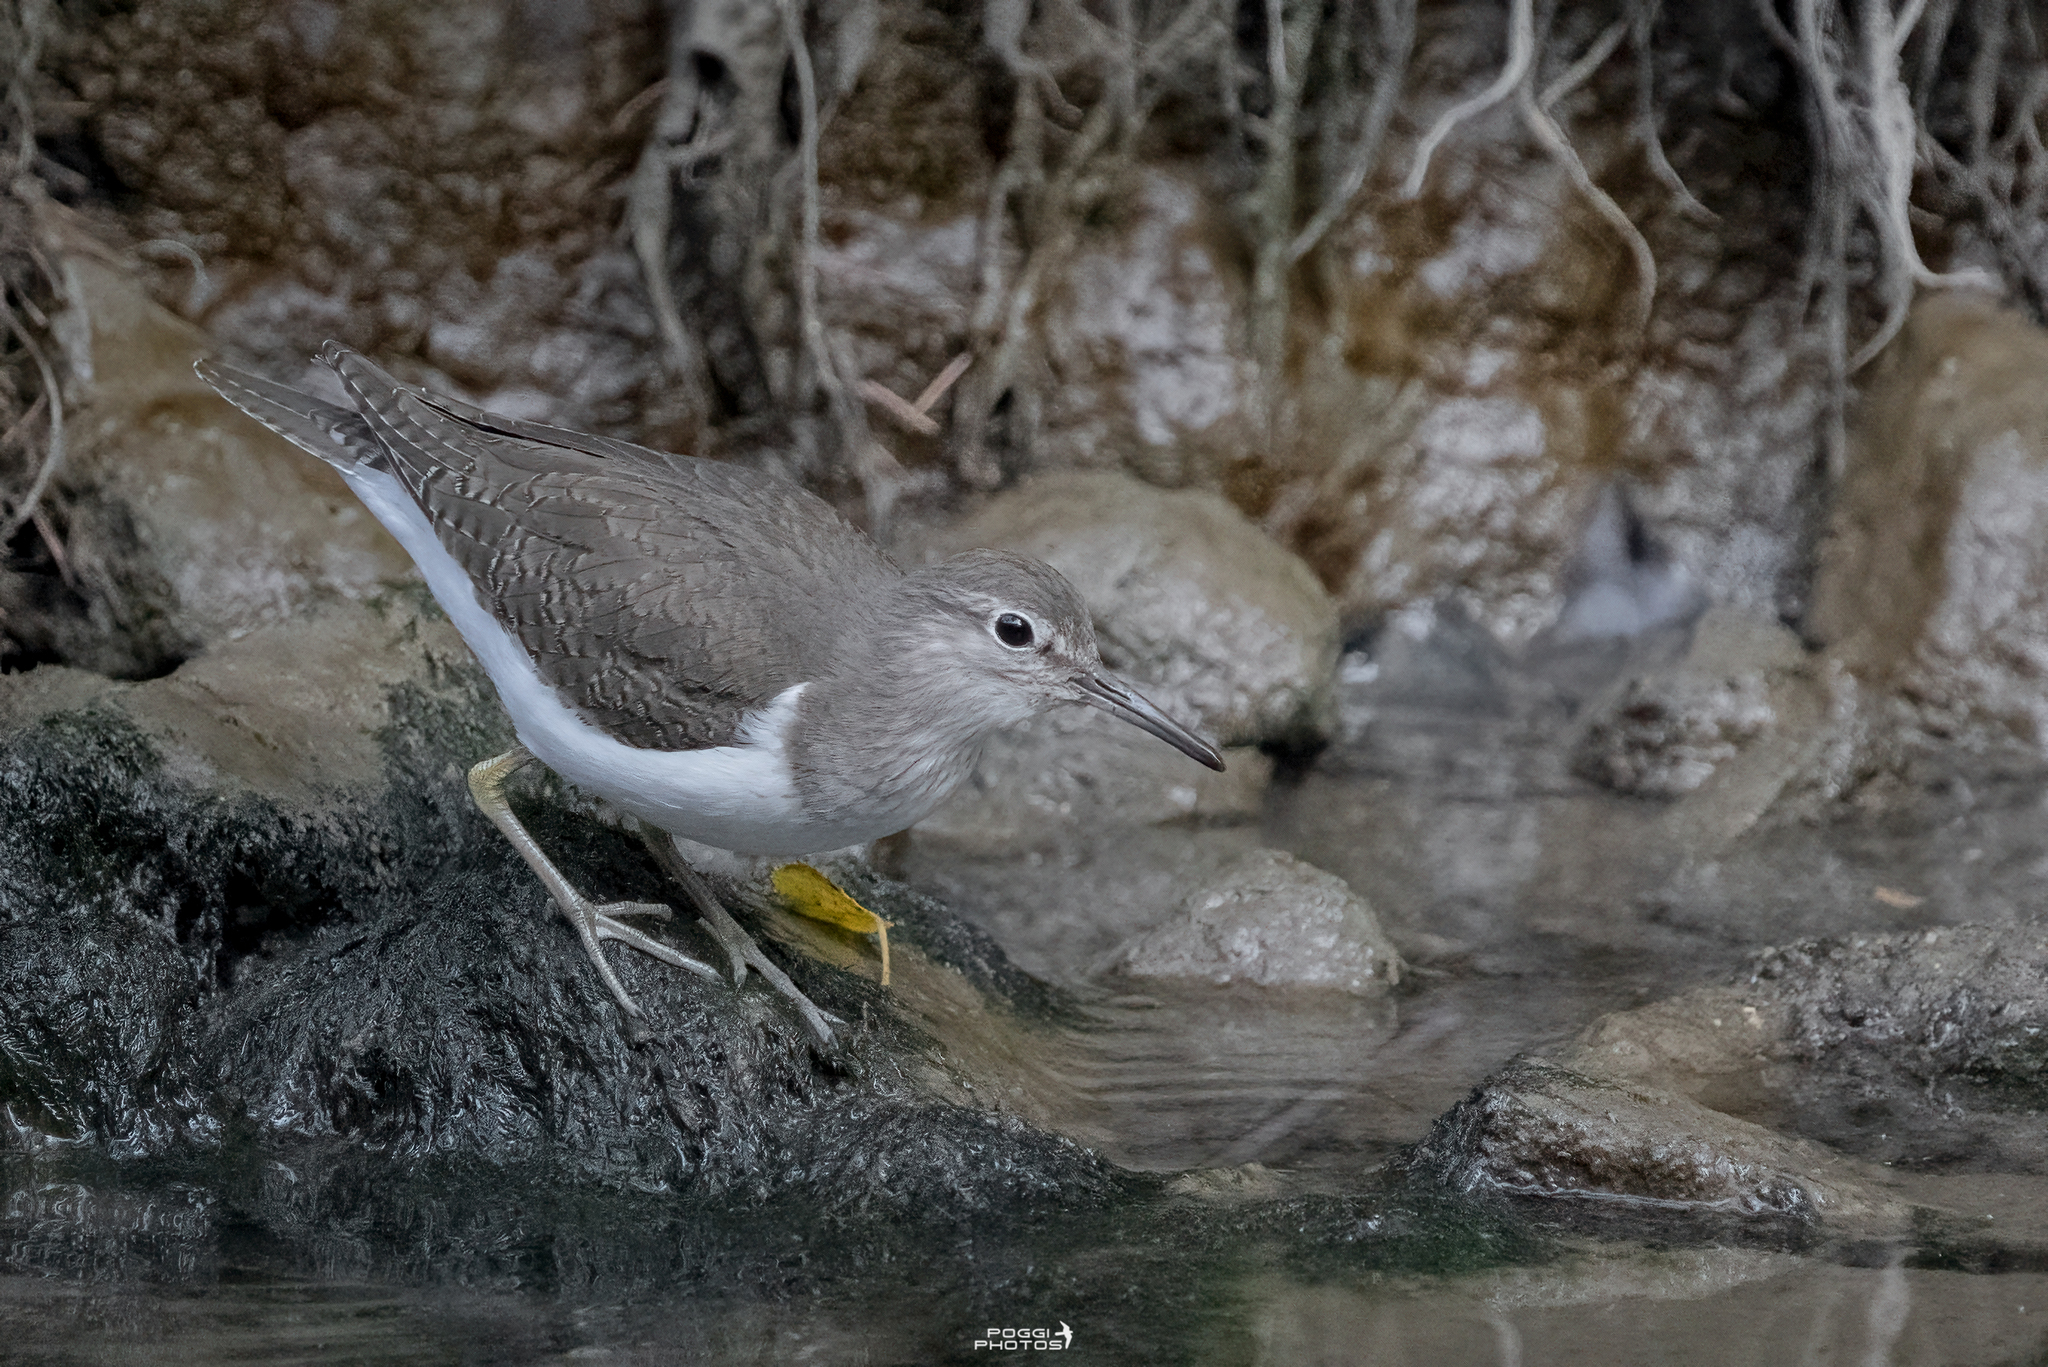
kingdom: Animalia
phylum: Chordata
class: Aves
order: Charadriiformes
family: Scolopacidae
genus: Actitis
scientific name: Actitis hypoleucos
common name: Common sandpiper
